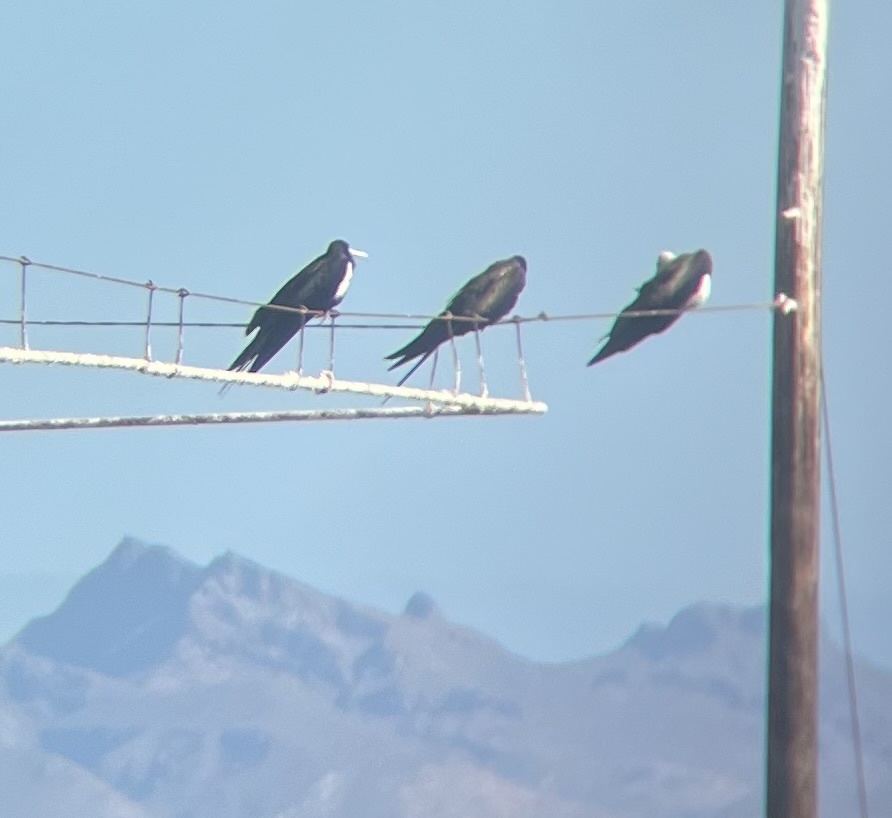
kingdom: Animalia
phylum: Chordata
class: Aves
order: Suliformes
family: Fregatidae
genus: Fregata
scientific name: Fregata magnificens
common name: Magnificent frigatebird
